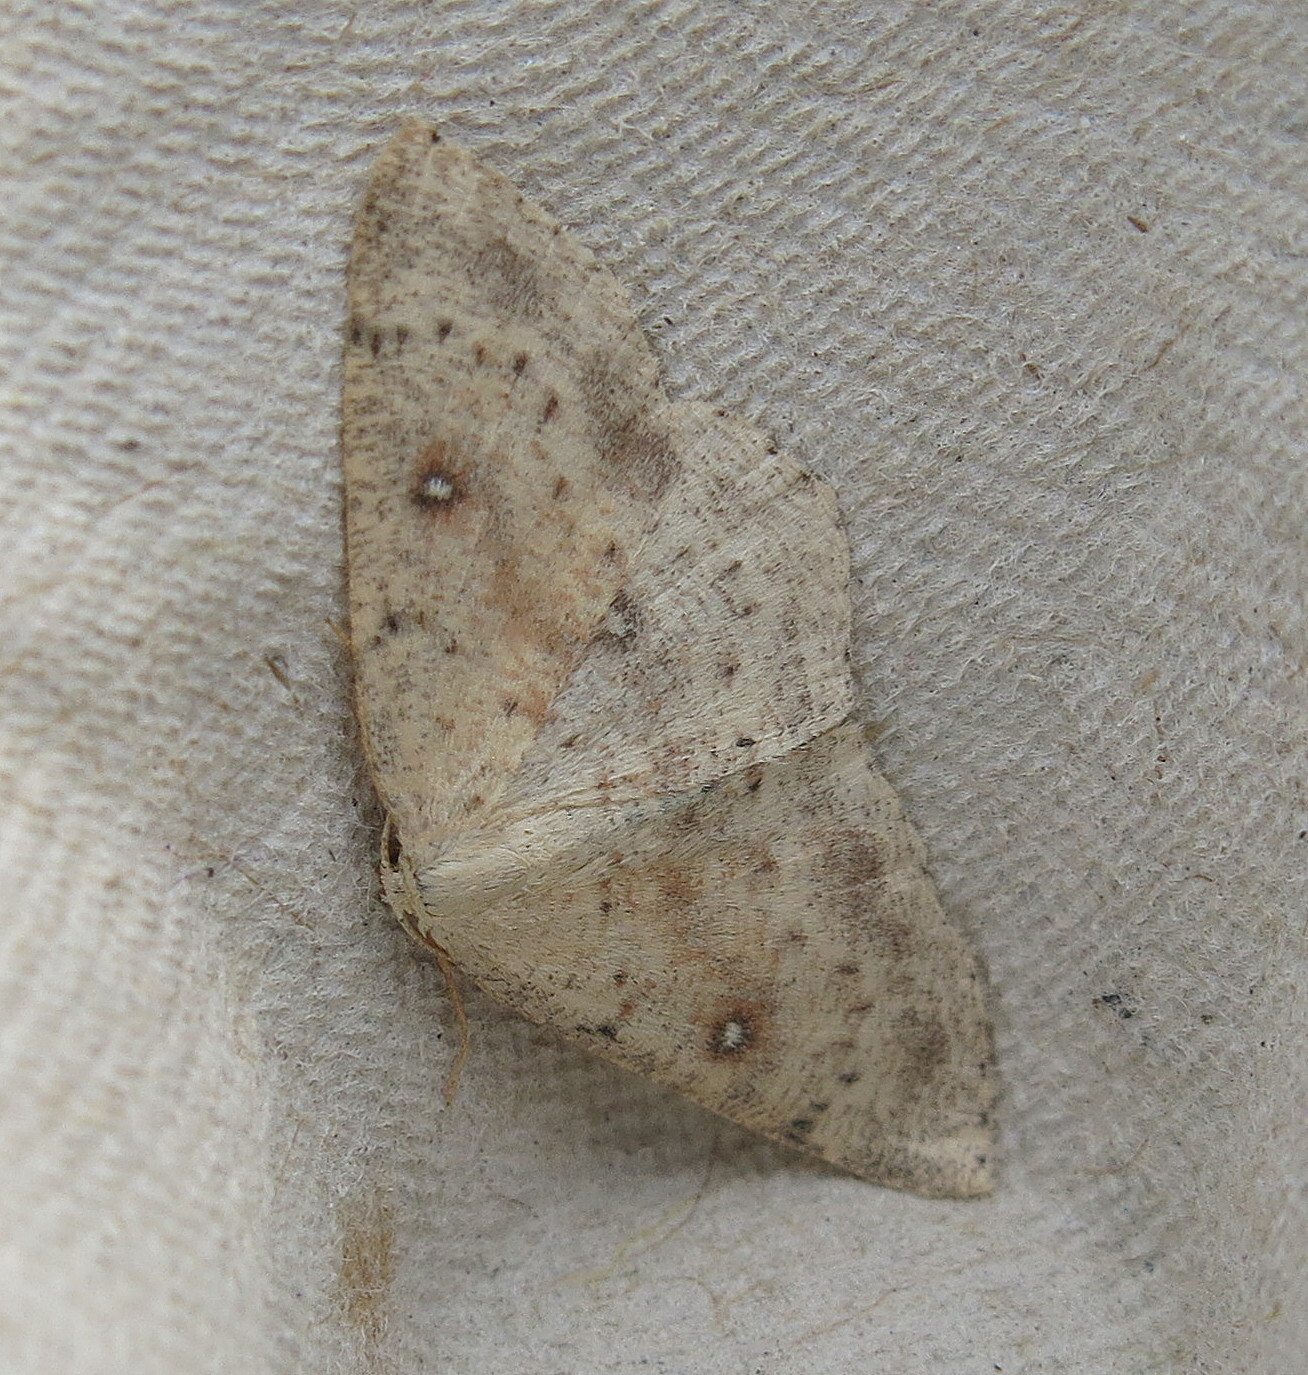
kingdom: Animalia
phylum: Arthropoda
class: Insecta
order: Lepidoptera
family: Geometridae
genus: Cyclophora
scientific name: Cyclophora albipunctata
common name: Birch mocha
